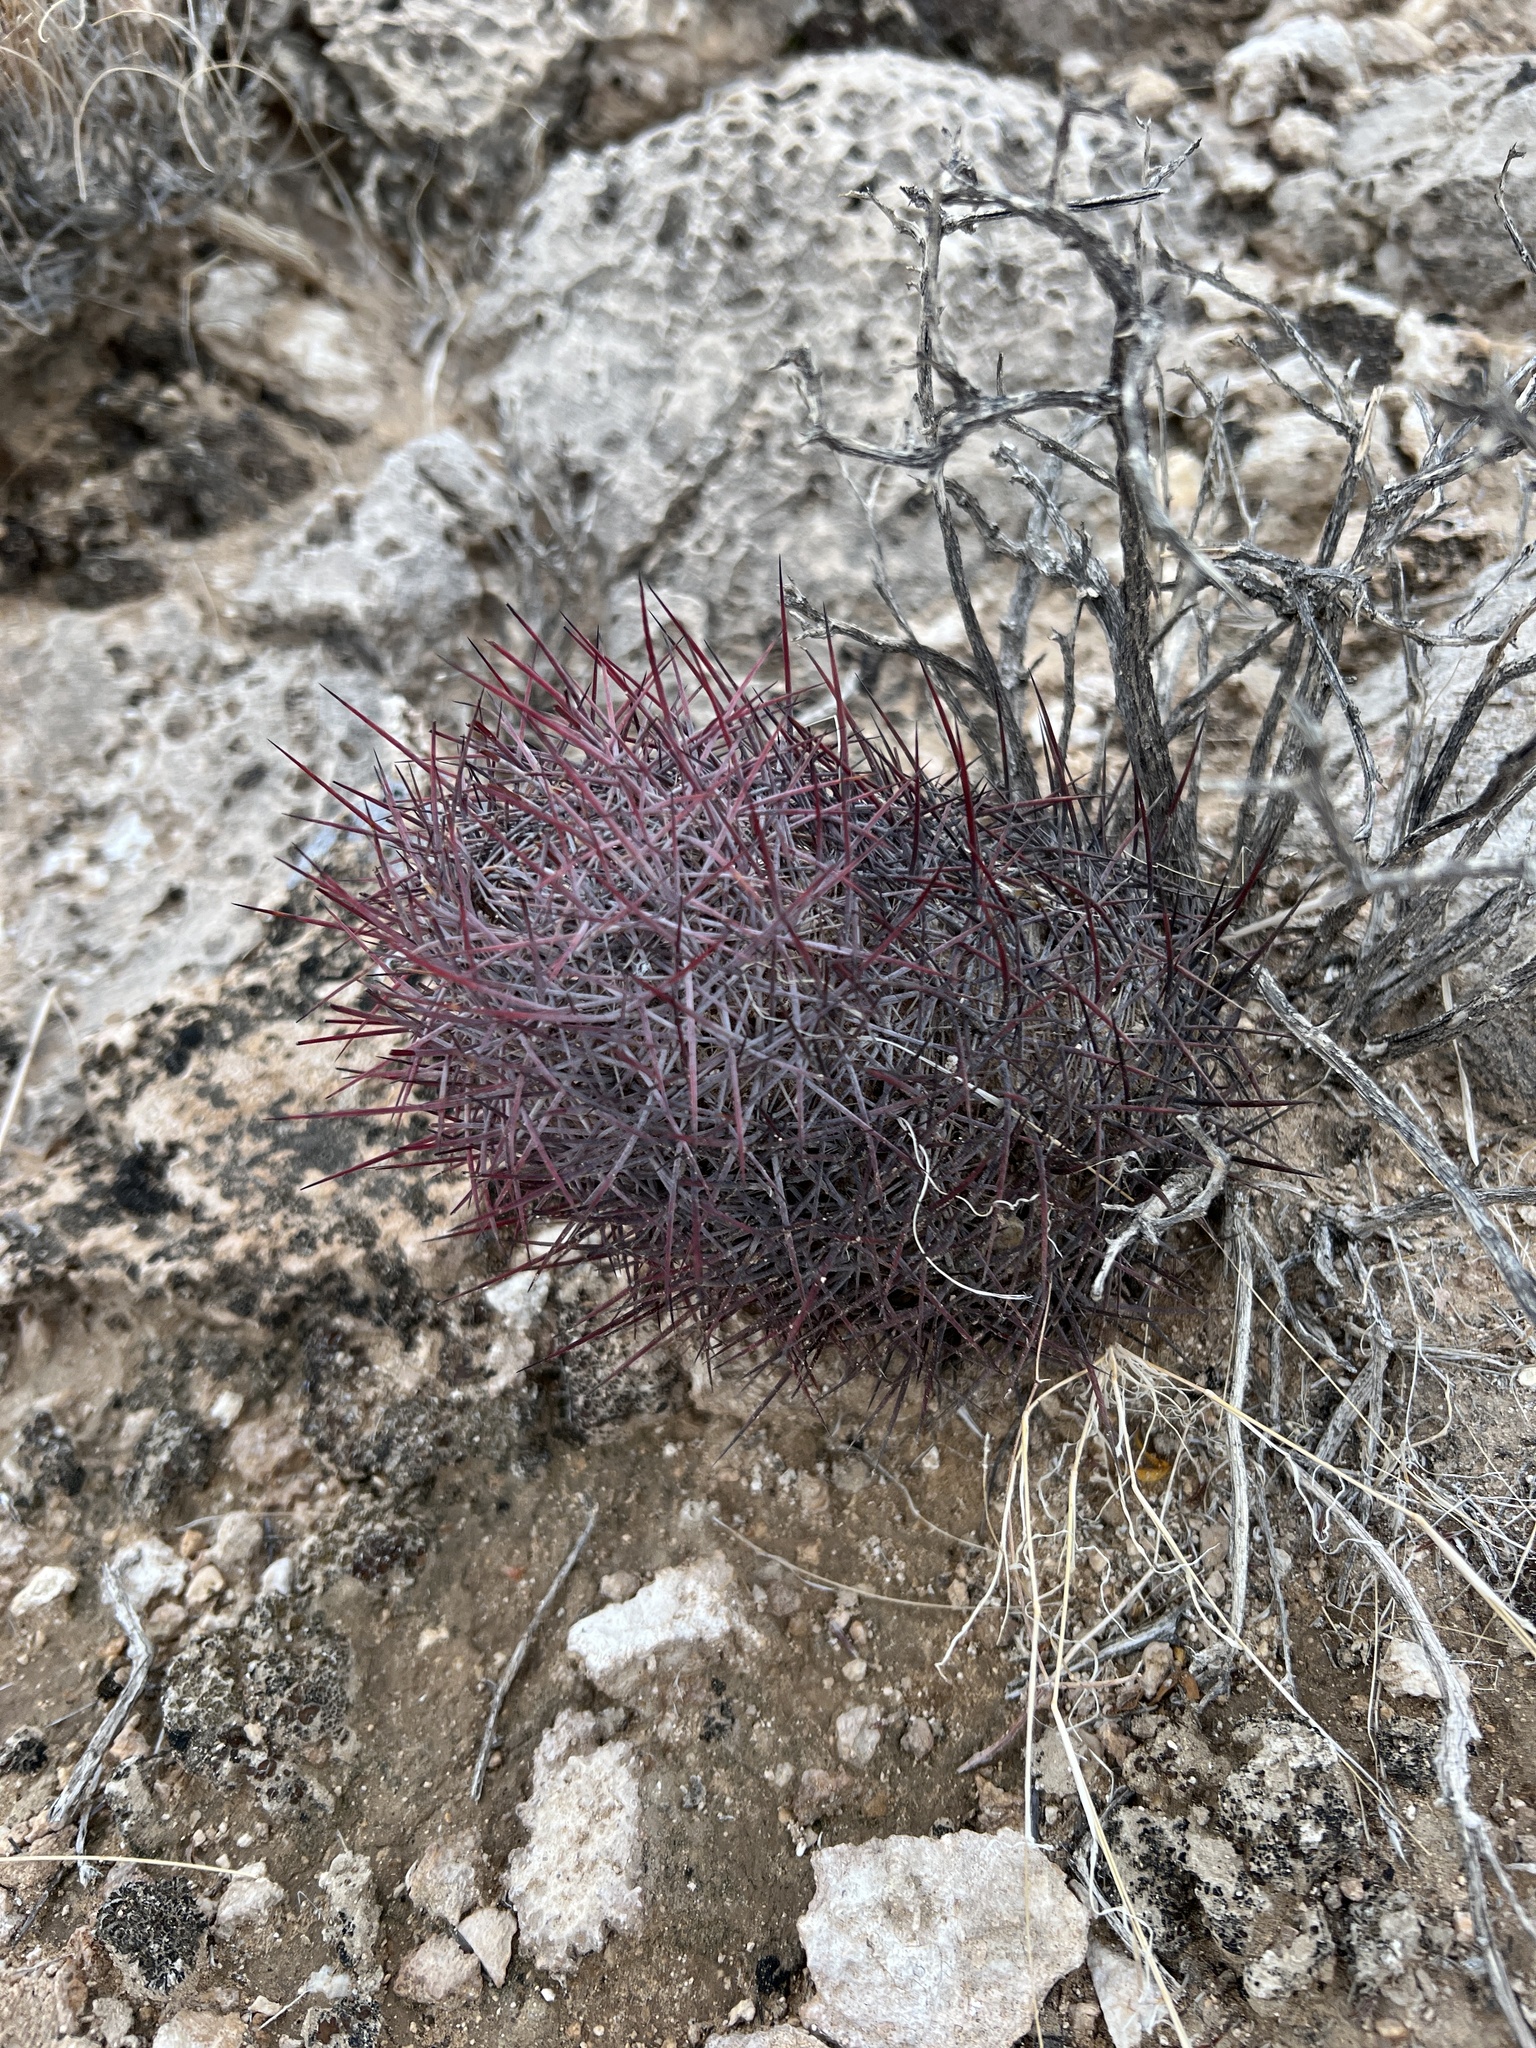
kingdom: Plantae
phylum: Tracheophyta
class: Magnoliopsida
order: Caryophyllales
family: Cactaceae
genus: Sclerocactus
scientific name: Sclerocactus johnsonii
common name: Eight-spine fishhook cactus
